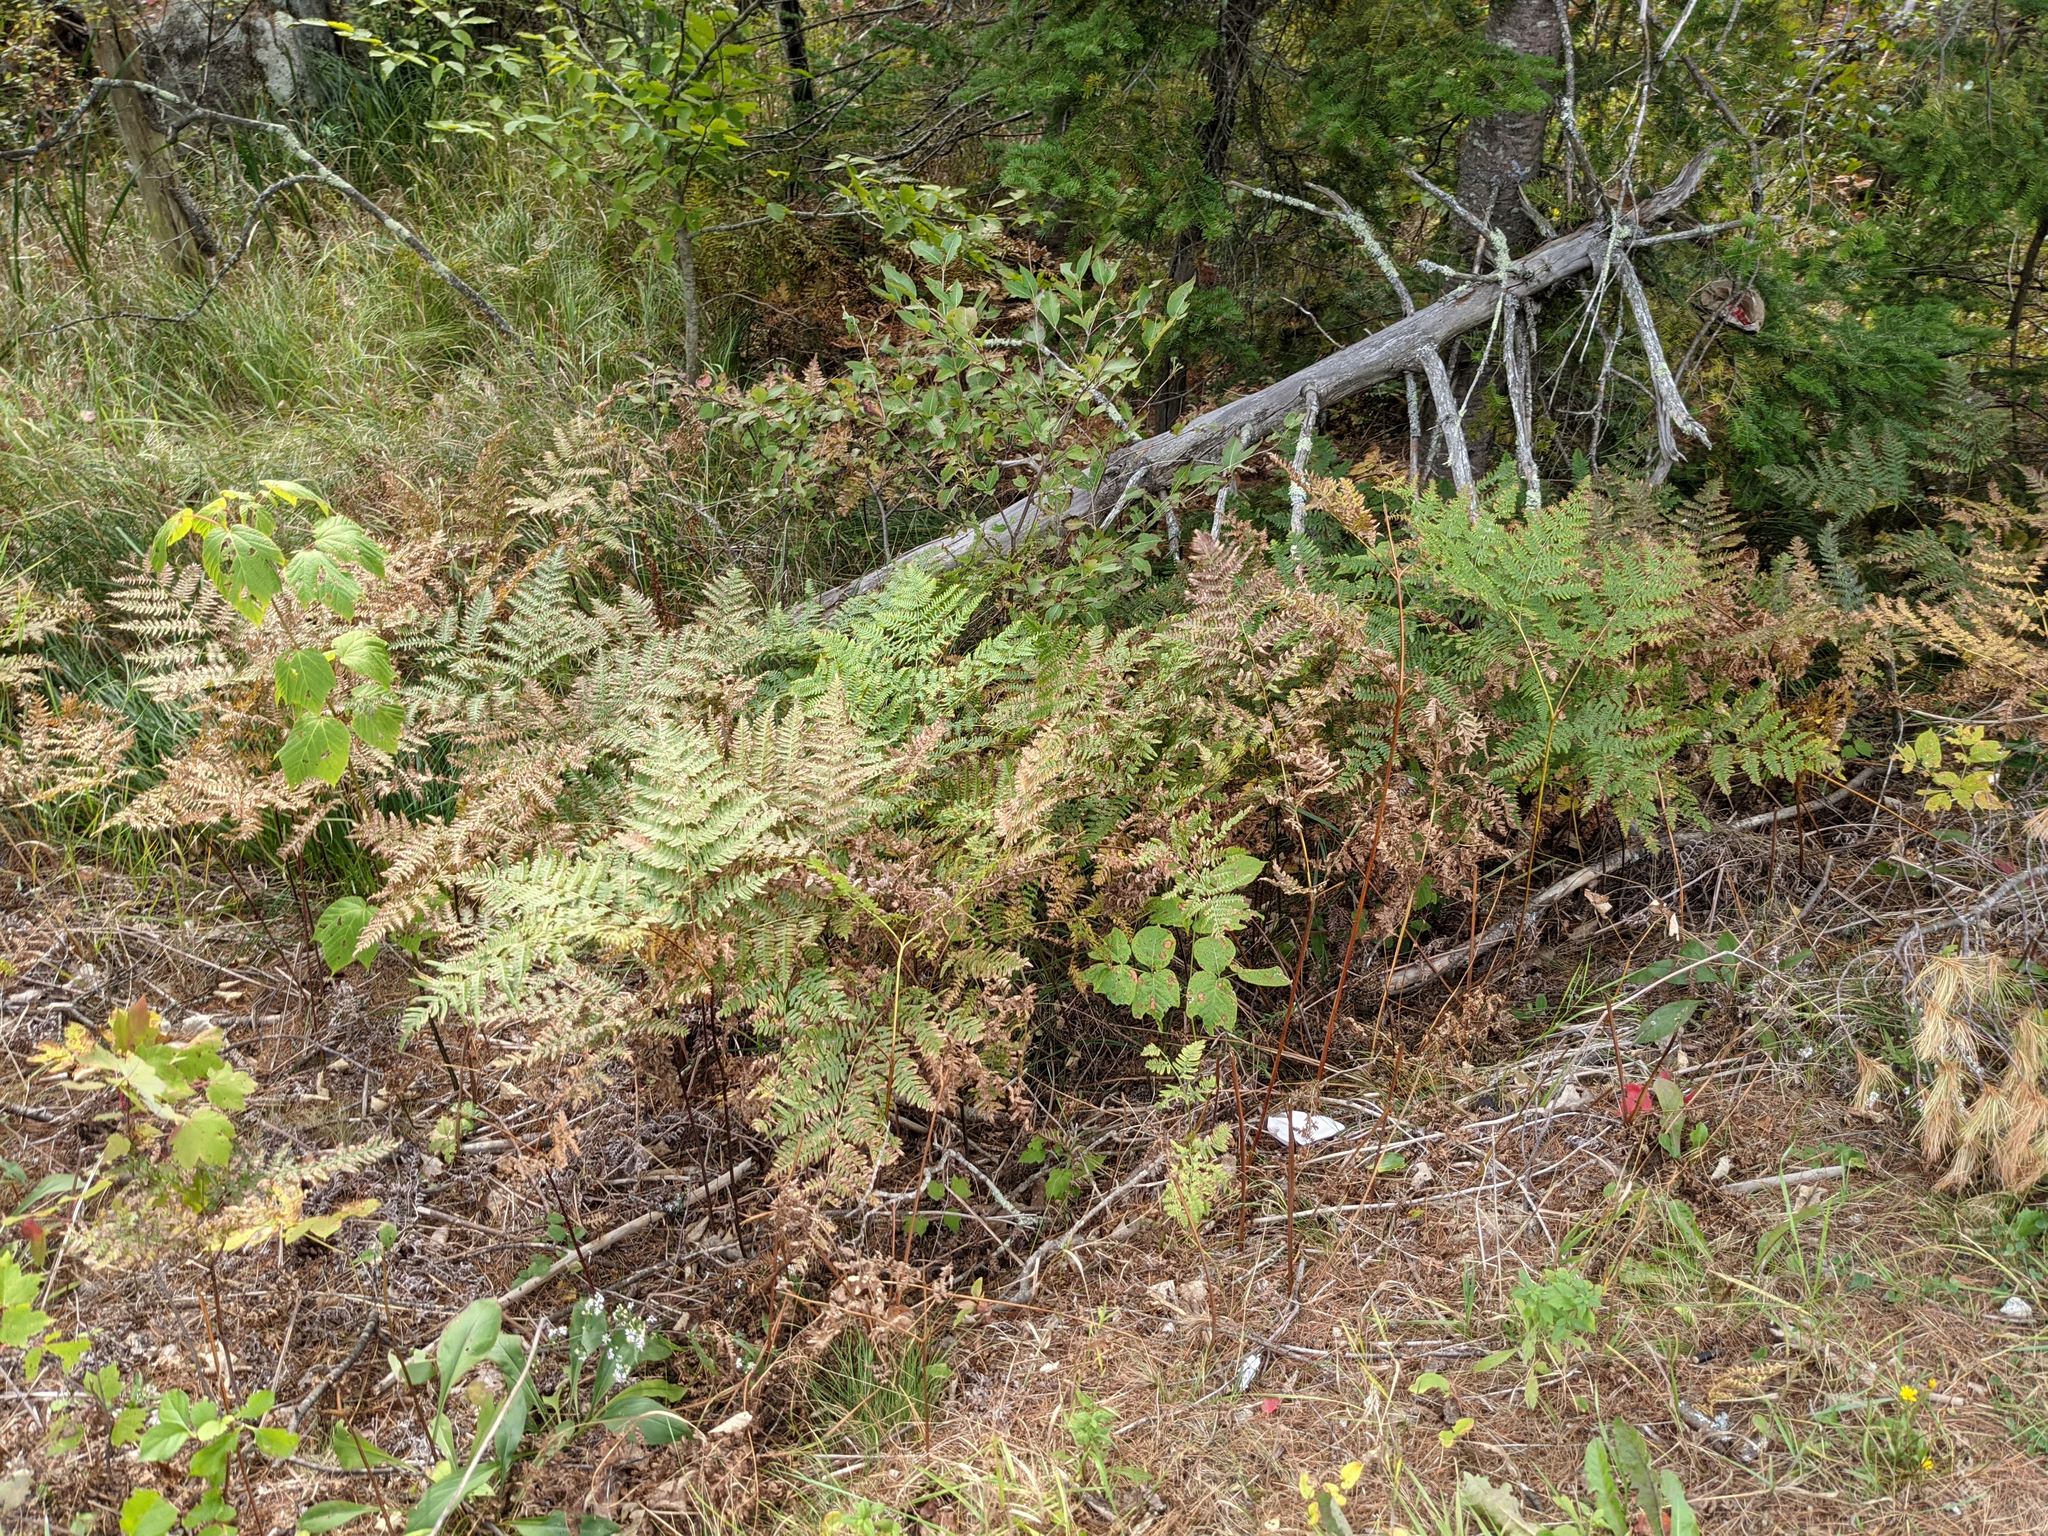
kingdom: Plantae
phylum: Tracheophyta
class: Polypodiopsida
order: Polypodiales
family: Dennstaedtiaceae
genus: Pteridium
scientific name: Pteridium aquilinum
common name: Bracken
